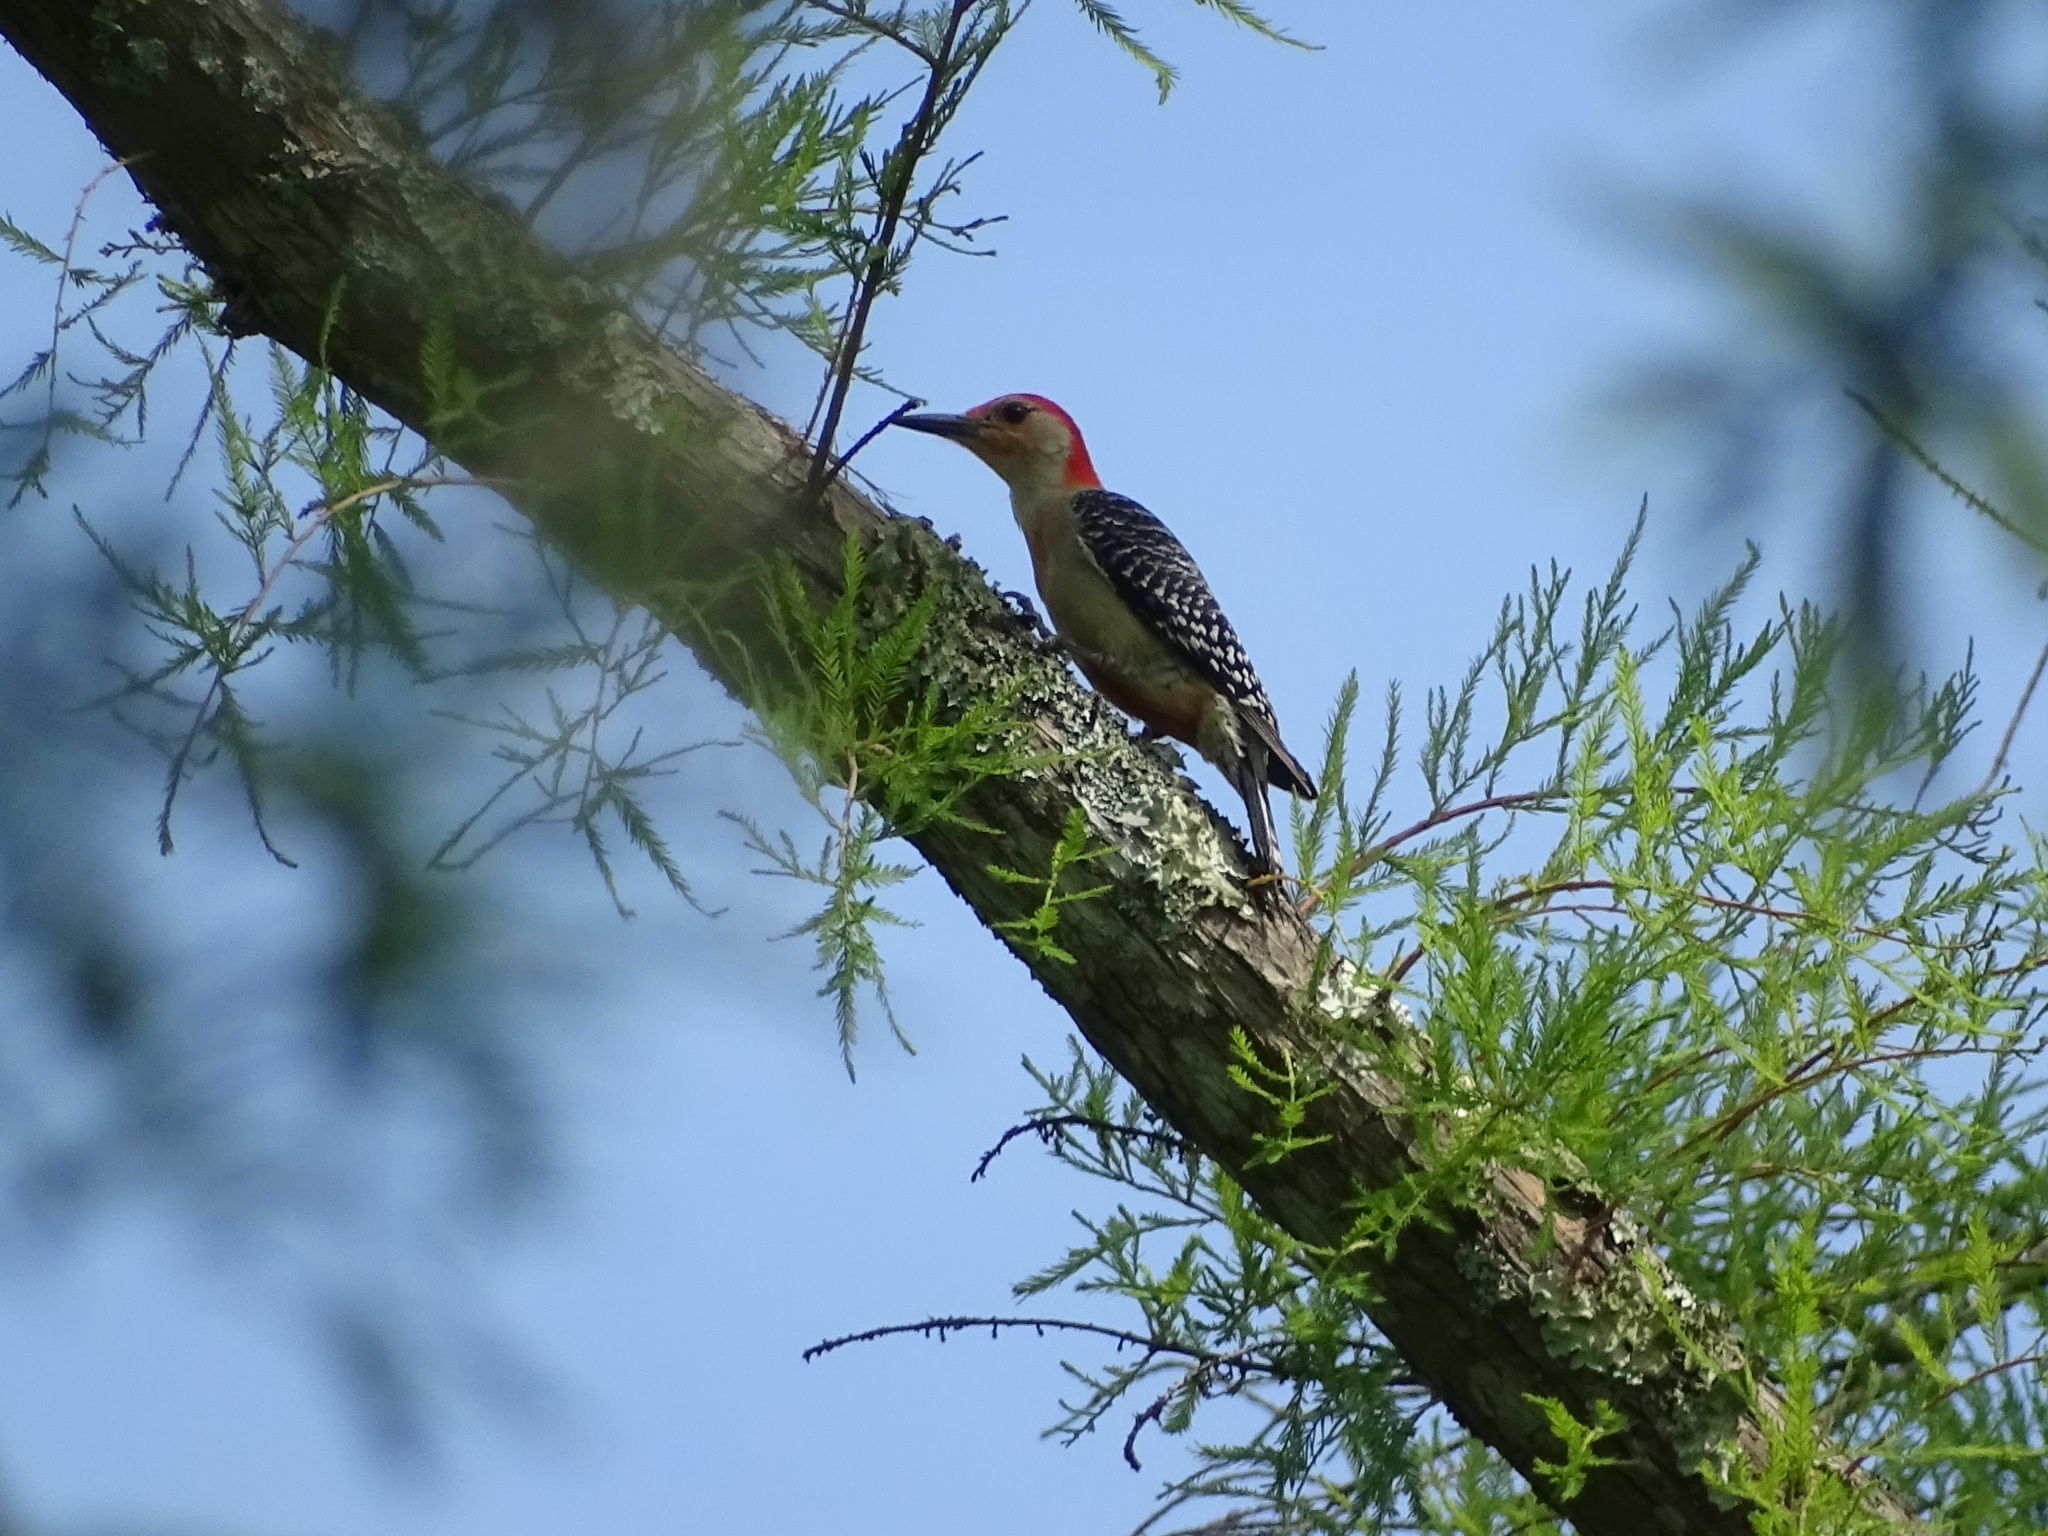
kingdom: Animalia
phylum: Chordata
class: Aves
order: Piciformes
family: Picidae
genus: Melanerpes
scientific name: Melanerpes carolinus
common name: Red-bellied woodpecker
